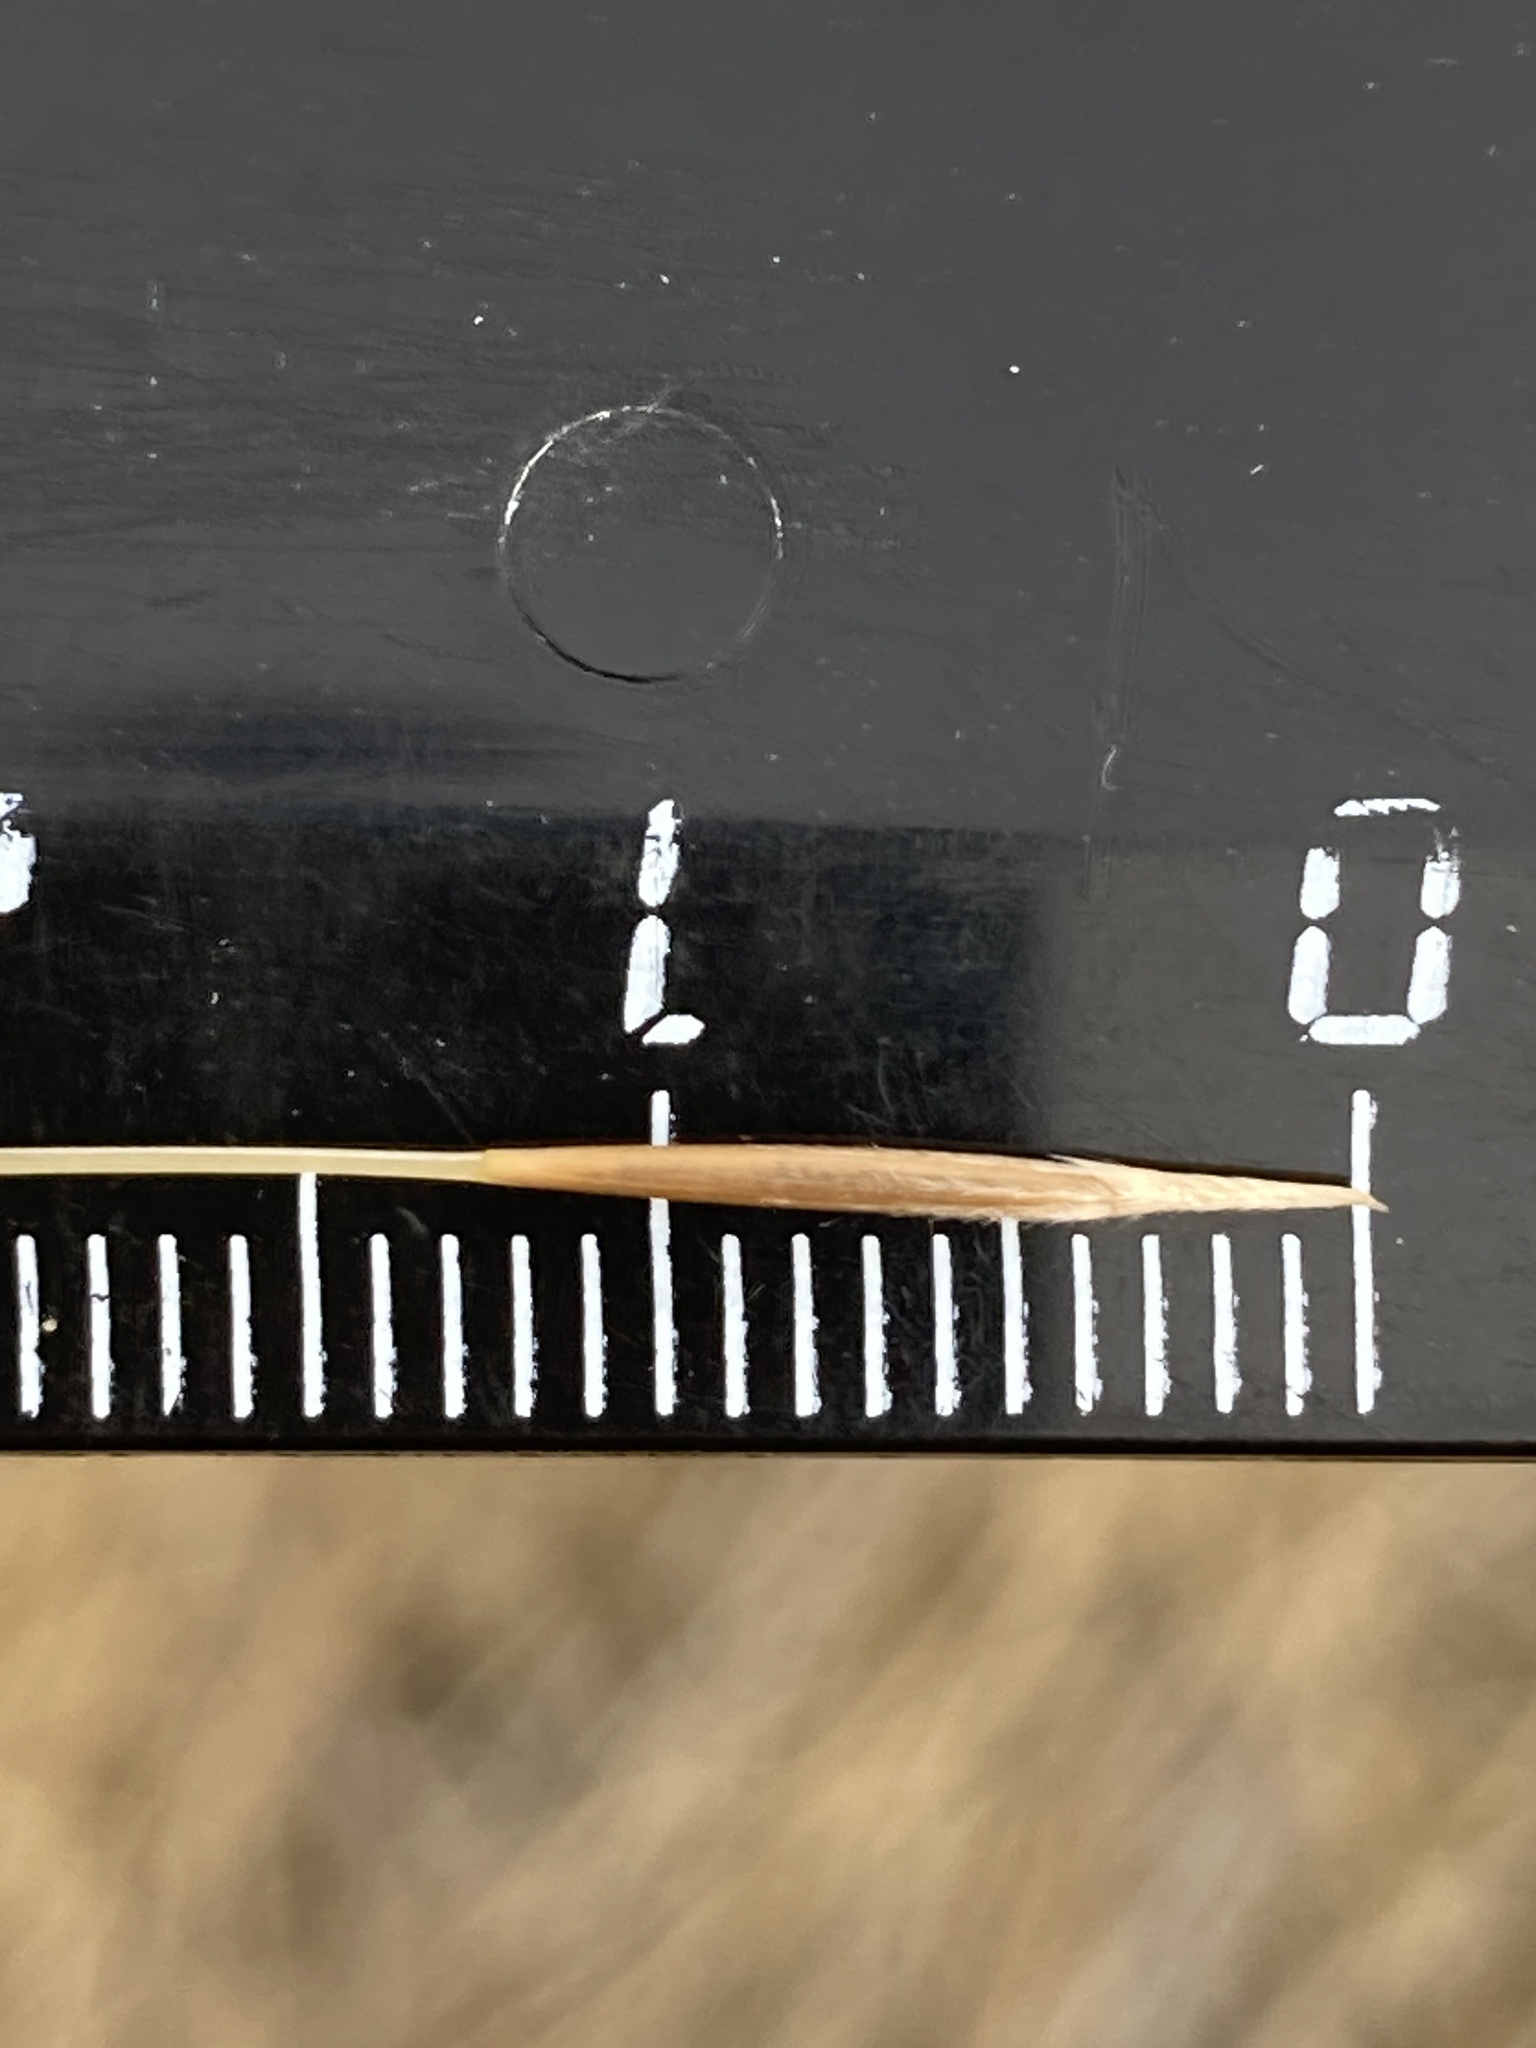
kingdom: Plantae
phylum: Tracheophyta
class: Liliopsida
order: Poales
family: Poaceae
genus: Stipa
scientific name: Stipa capillata
